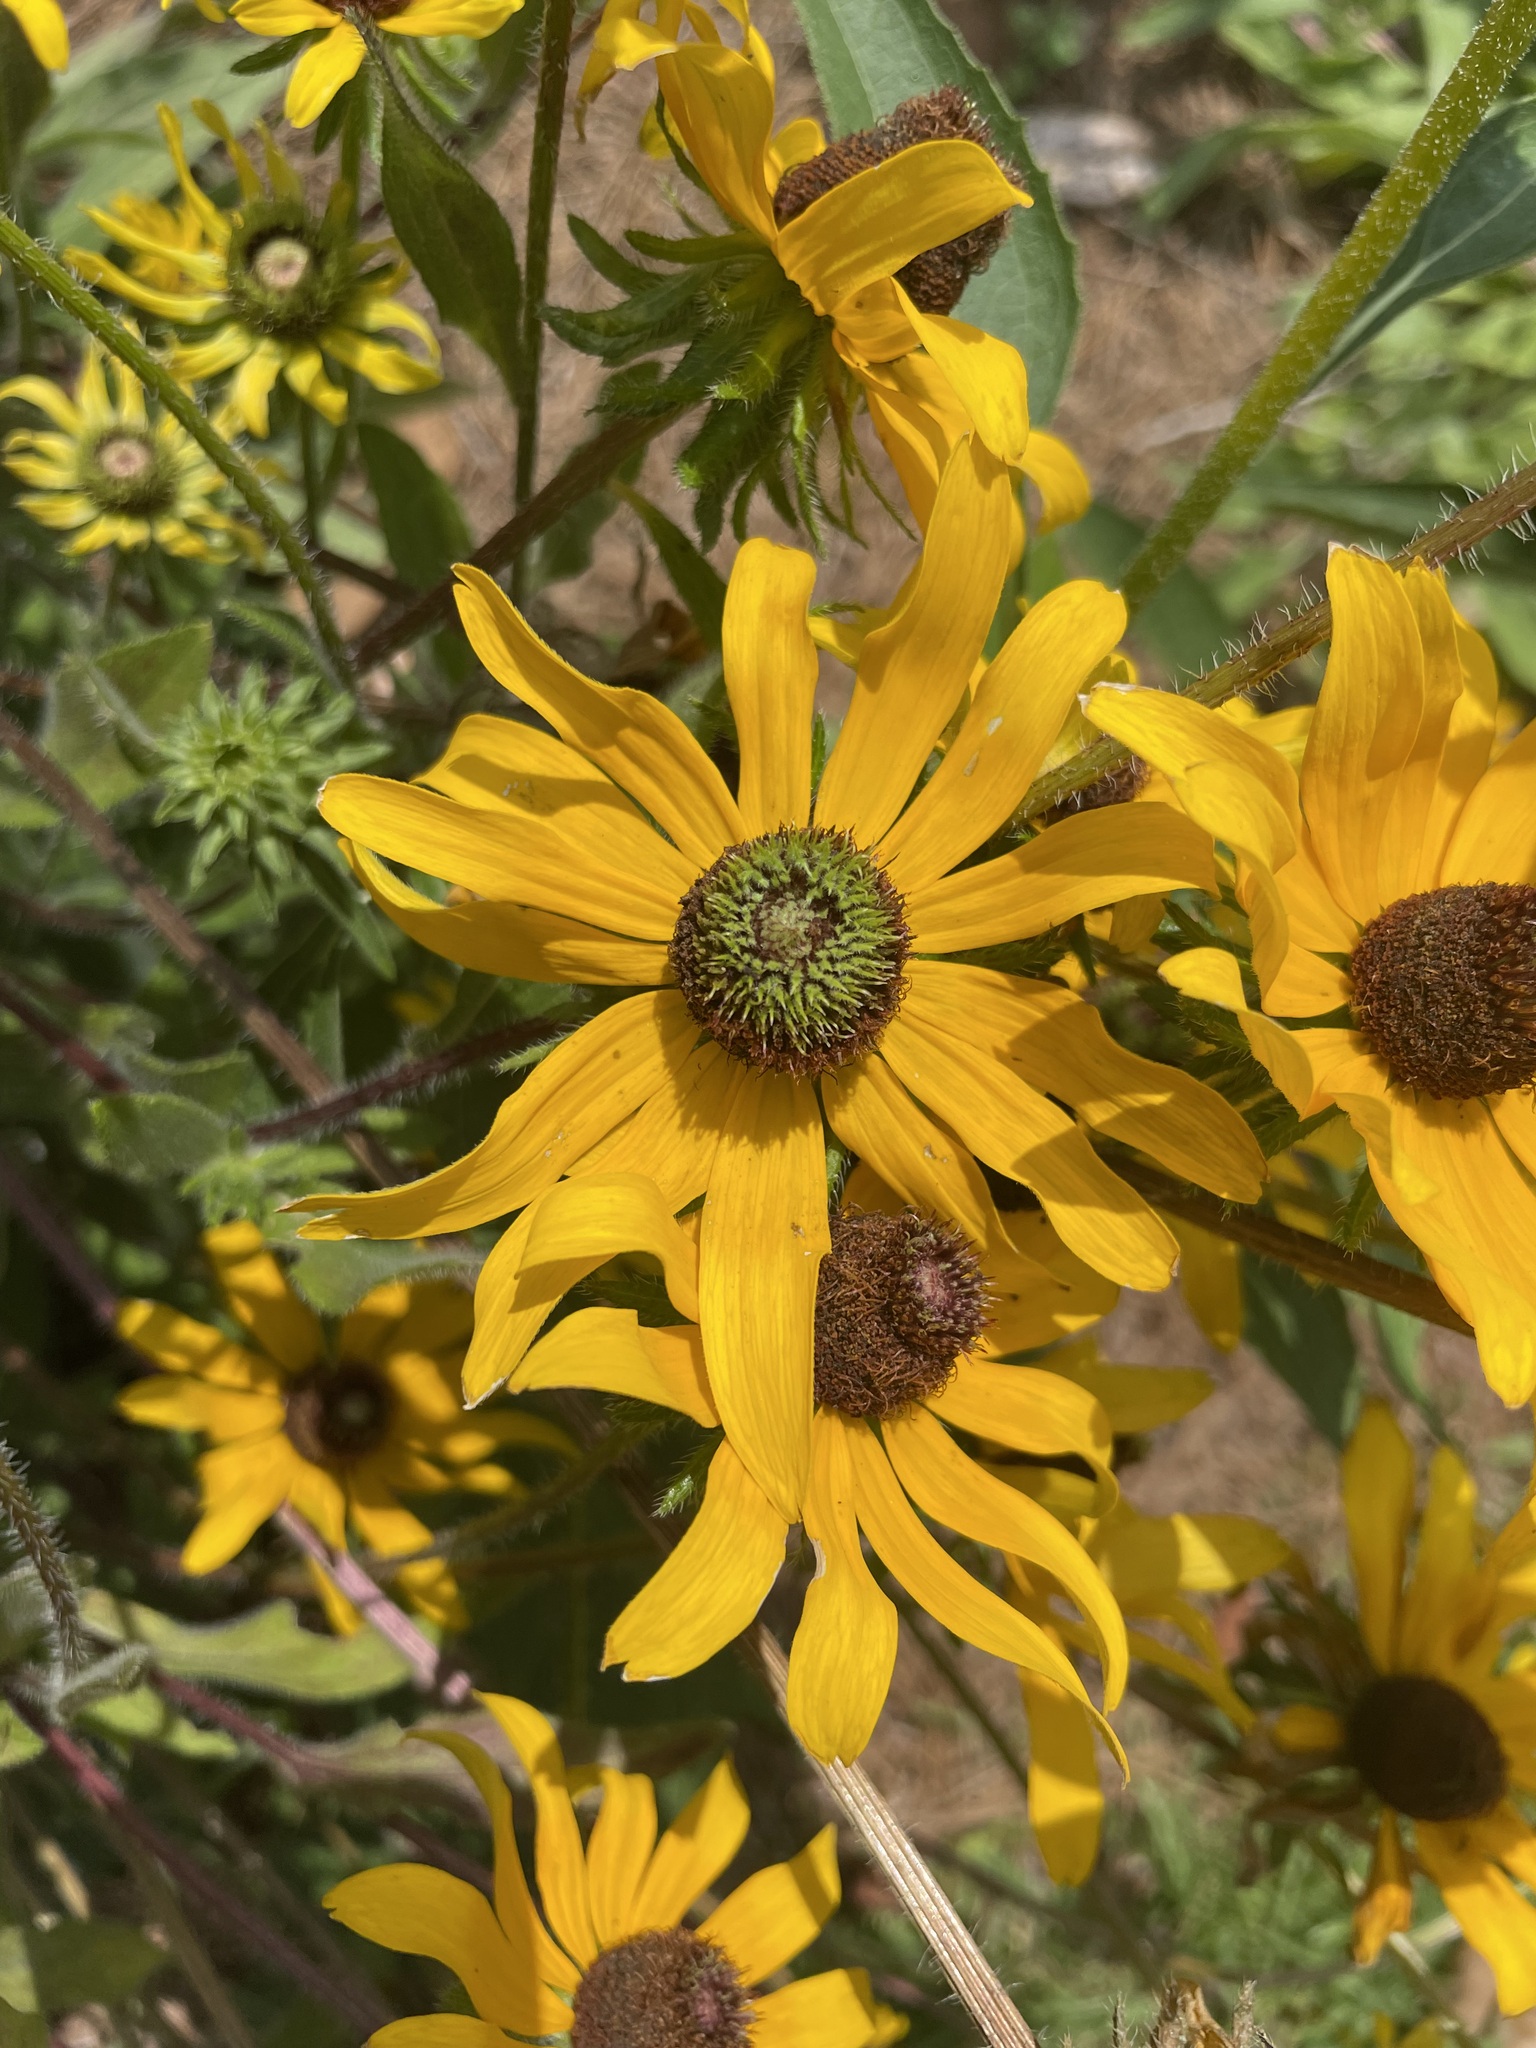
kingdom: Bacteria
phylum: Firmicutes
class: Bacilli
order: Acholeplasmatales
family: Acholeplasmataceae
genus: Phytoplasma
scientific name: Phytoplasma
